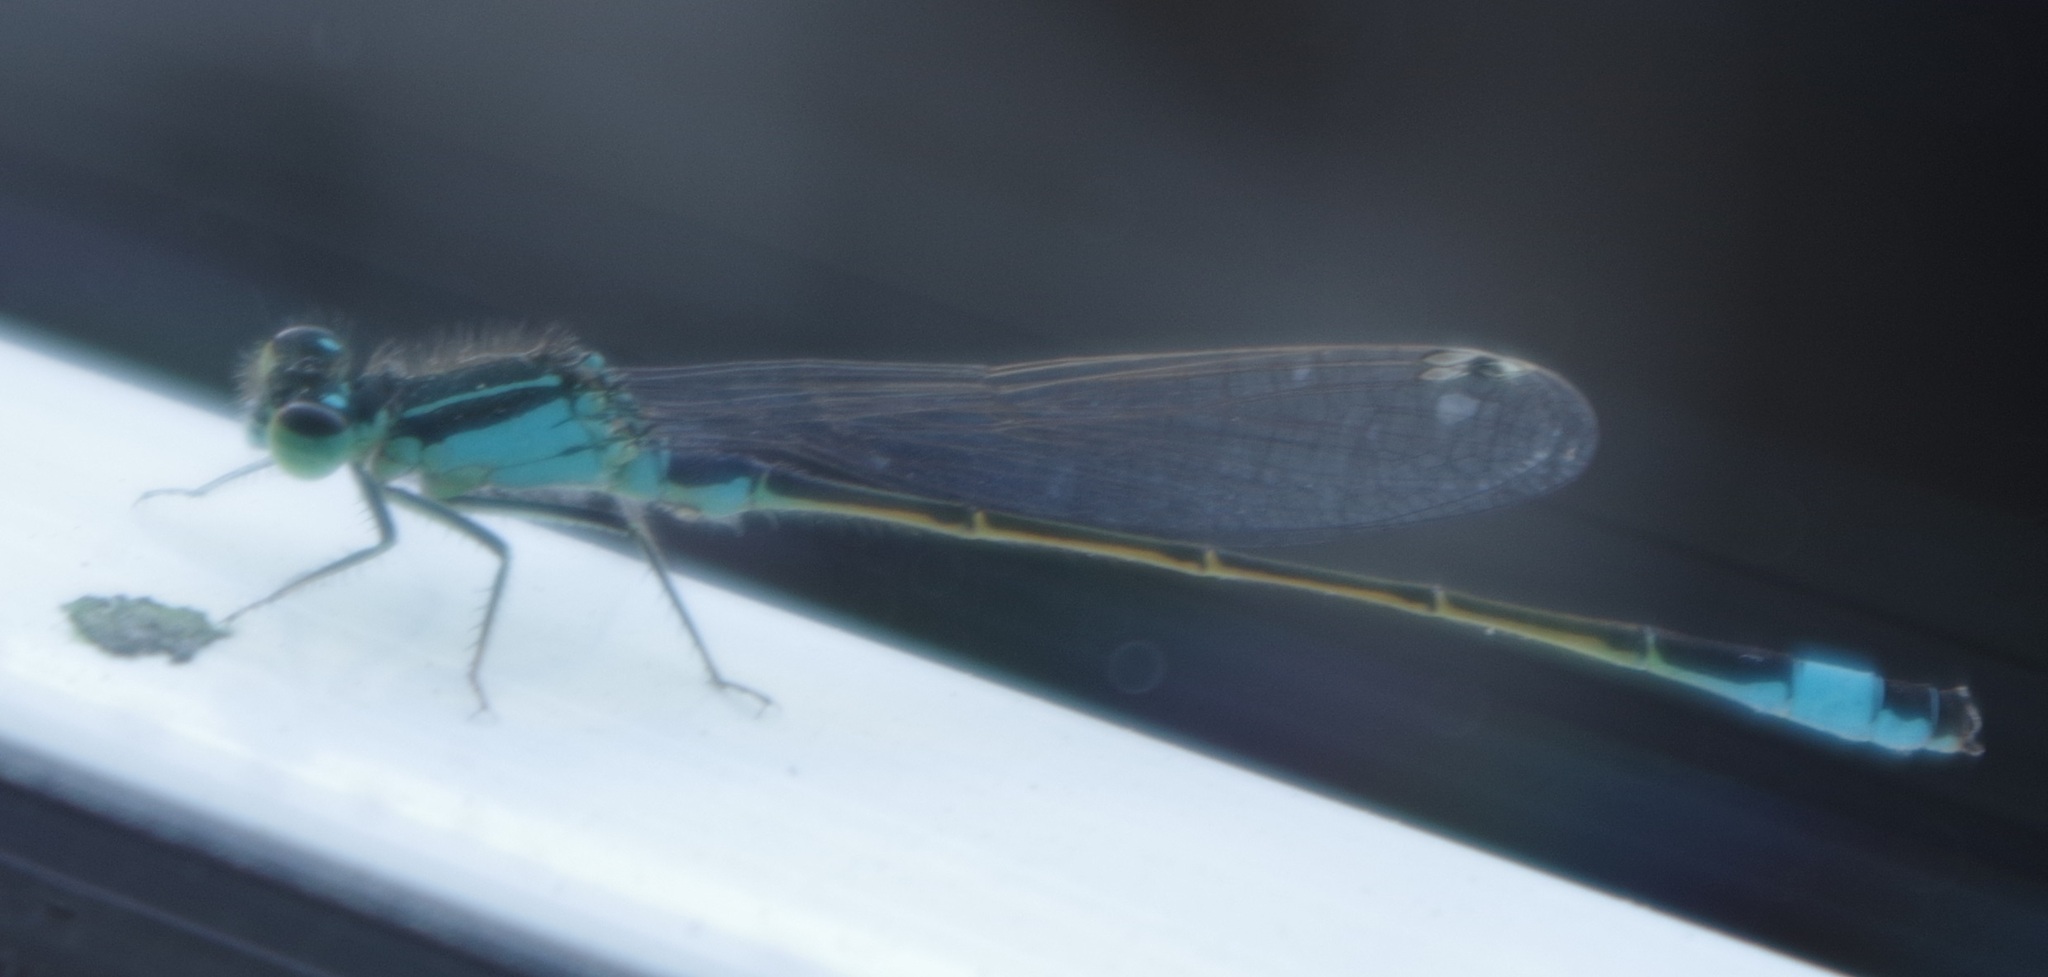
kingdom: Animalia
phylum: Arthropoda
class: Insecta
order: Odonata
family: Coenagrionidae
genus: Ischnura
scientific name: Ischnura elegans
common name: Blue-tailed damselfly
